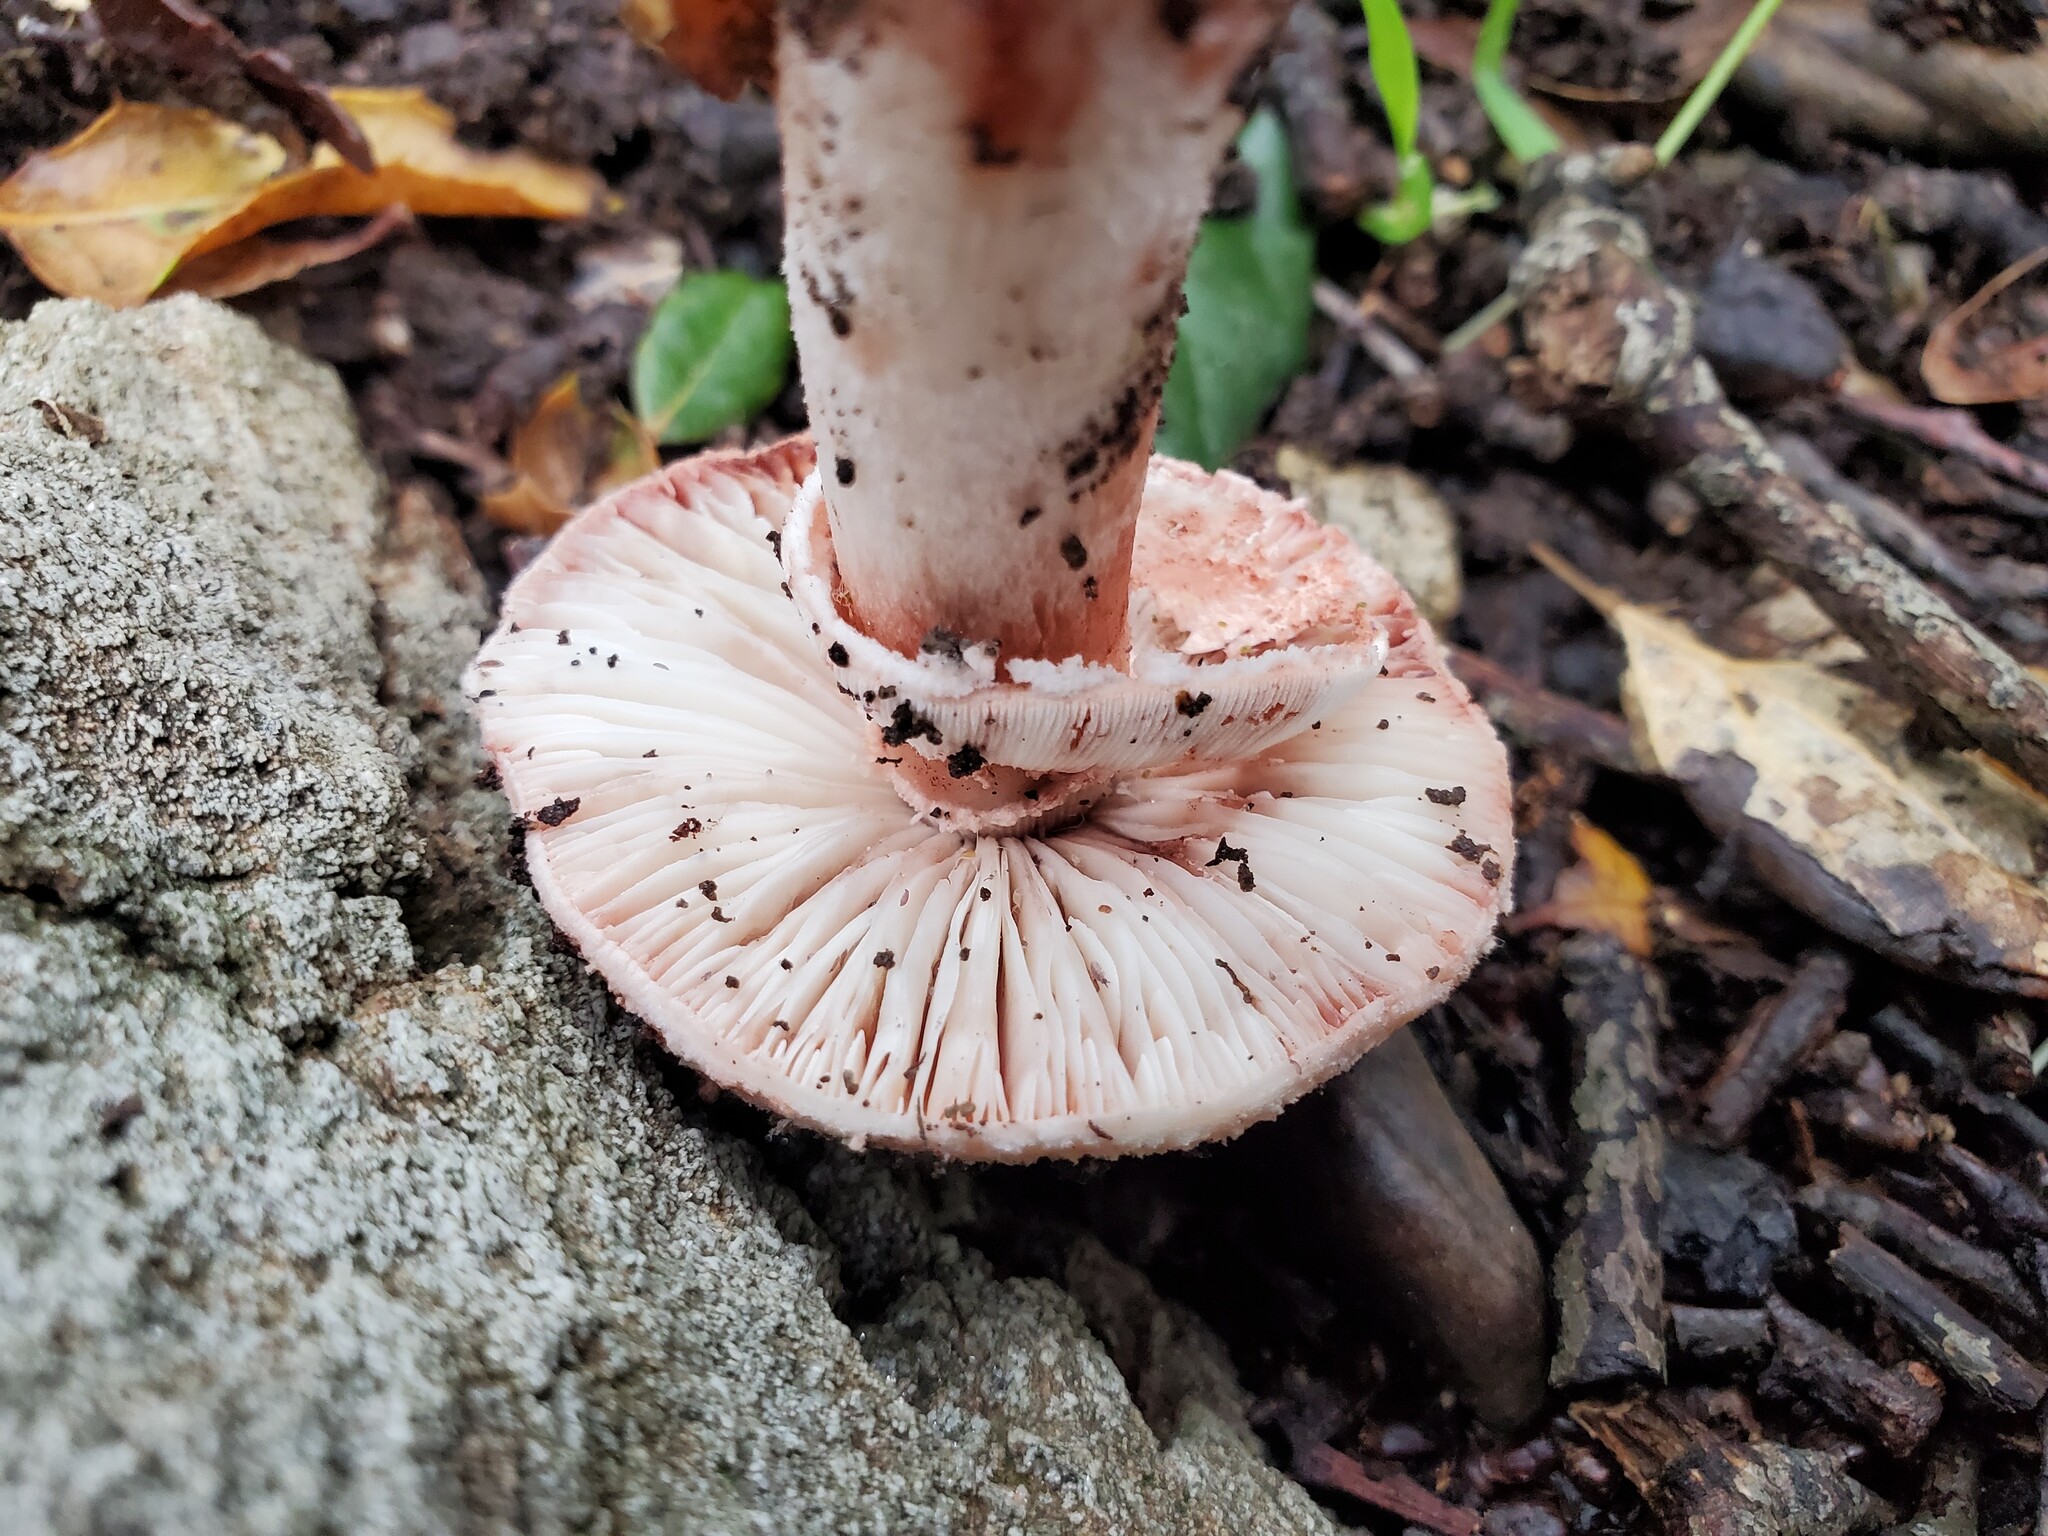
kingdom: Fungi
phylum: Basidiomycota
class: Agaricomycetes
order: Agaricales
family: Amanitaceae
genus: Amanita
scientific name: Amanita novinupta
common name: Blushing bride
